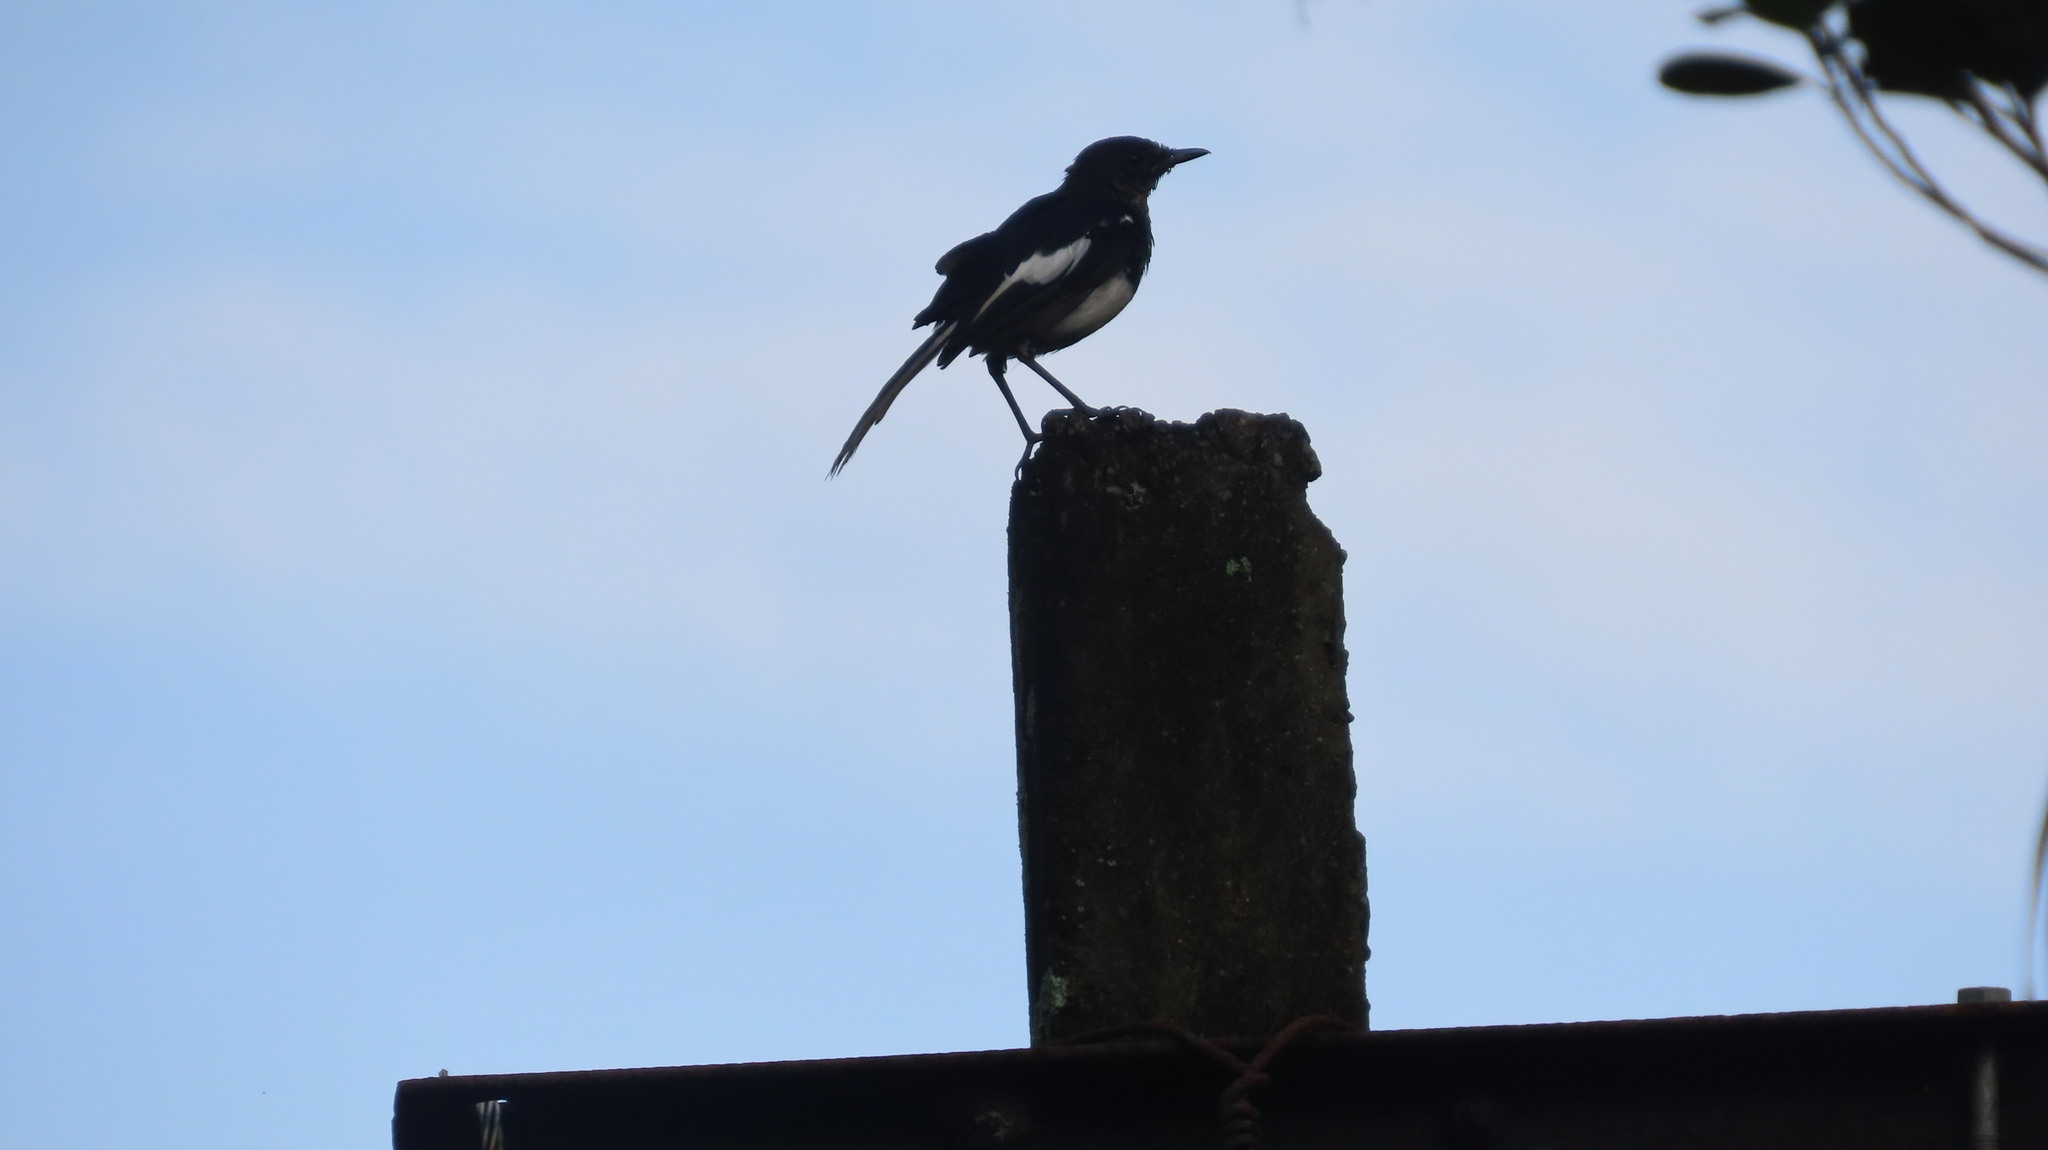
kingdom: Animalia
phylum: Chordata
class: Aves
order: Passeriformes
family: Muscicapidae
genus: Copsychus
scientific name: Copsychus saularis
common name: Oriental magpie-robin
